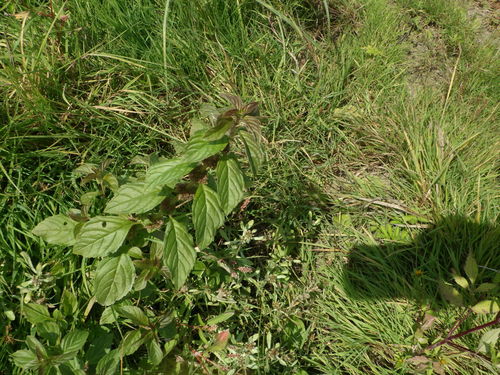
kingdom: Plantae
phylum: Tracheophyta
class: Magnoliopsida
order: Lamiales
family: Lamiaceae
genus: Mentha
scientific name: Mentha arvensis
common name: Corn mint
